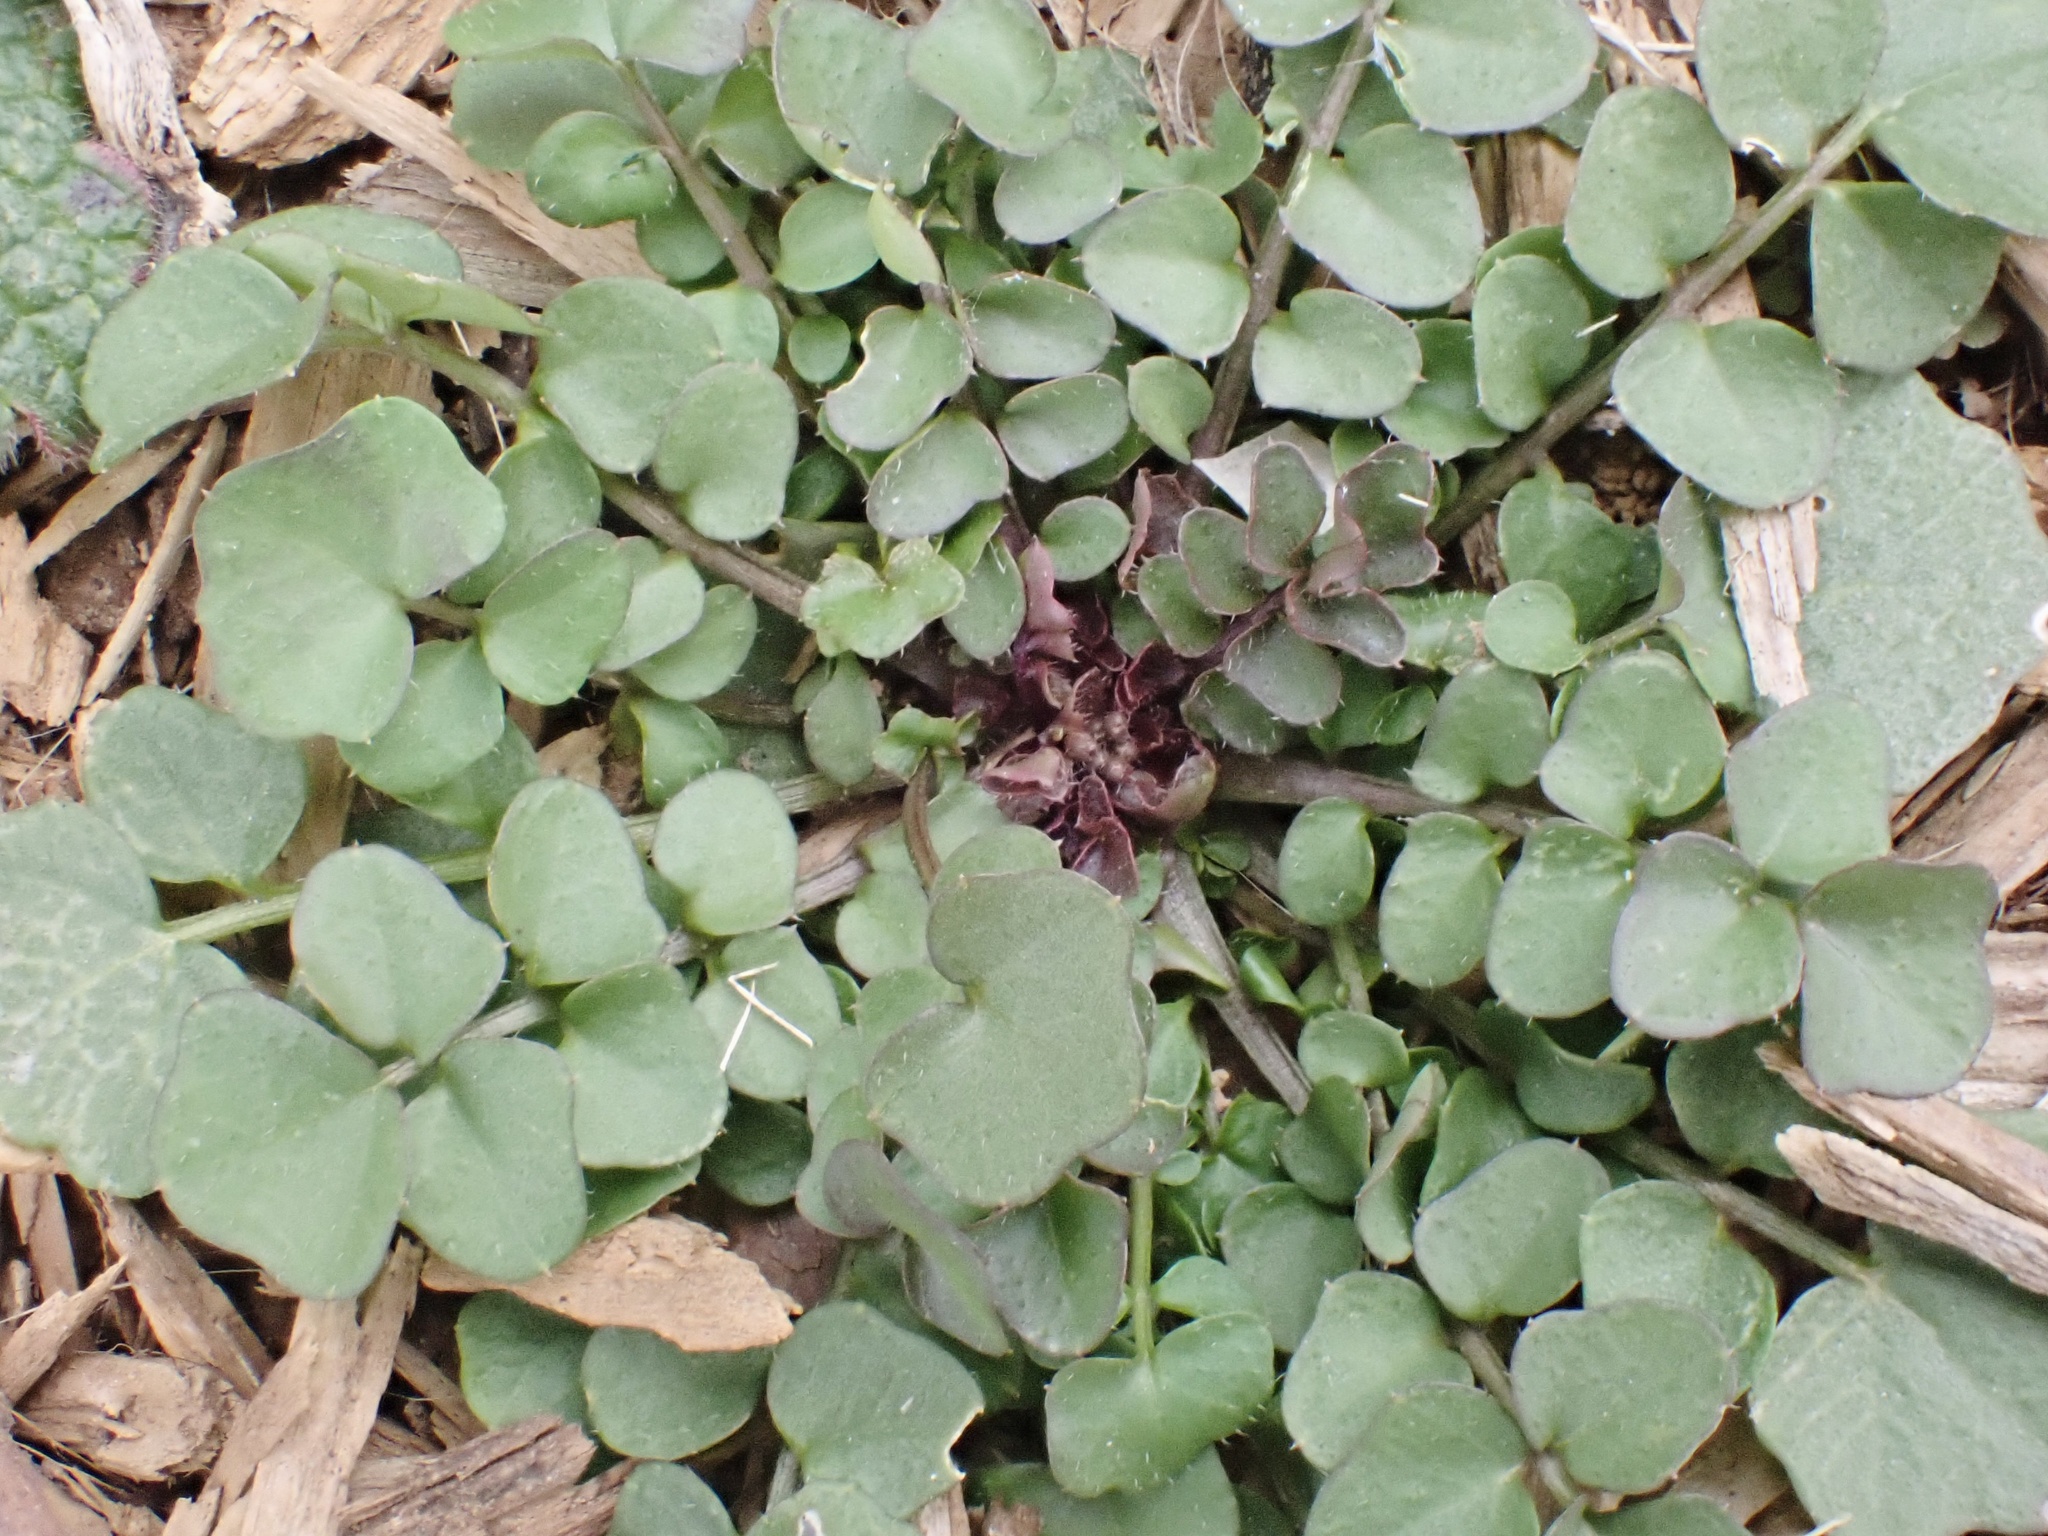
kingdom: Plantae
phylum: Tracheophyta
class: Magnoliopsida
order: Brassicales
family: Brassicaceae
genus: Cardamine
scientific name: Cardamine hirsuta
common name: Hairy bittercress
